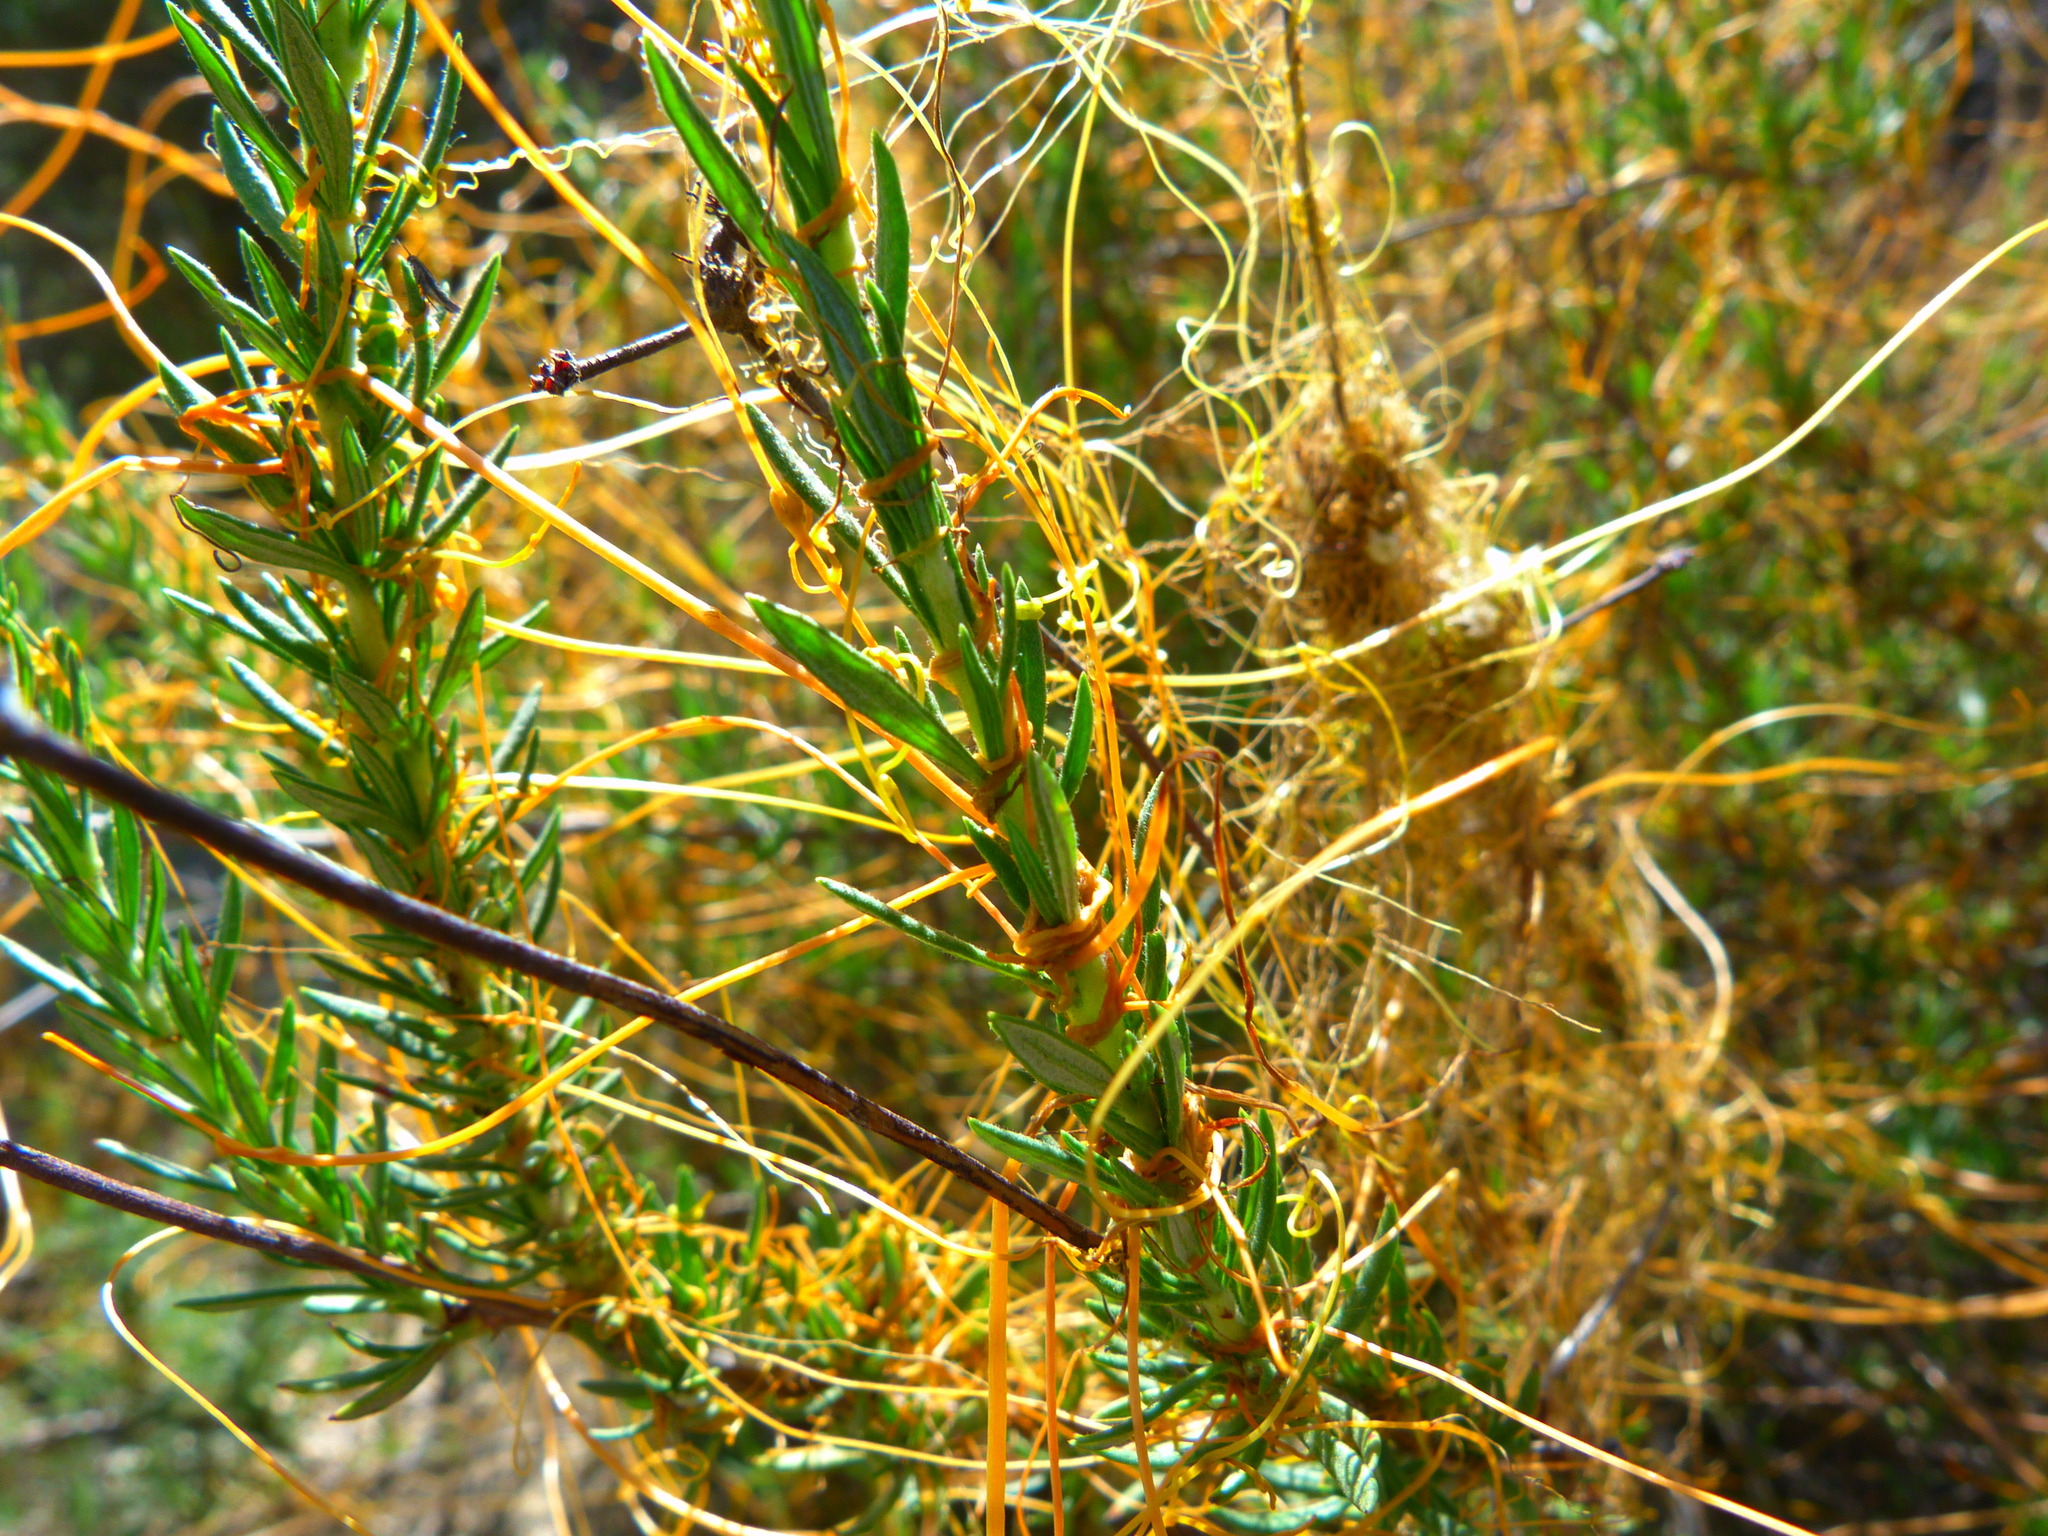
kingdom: Plantae
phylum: Tracheophyta
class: Magnoliopsida
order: Solanales
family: Convolvulaceae
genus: Cuscuta
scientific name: Cuscuta californica
